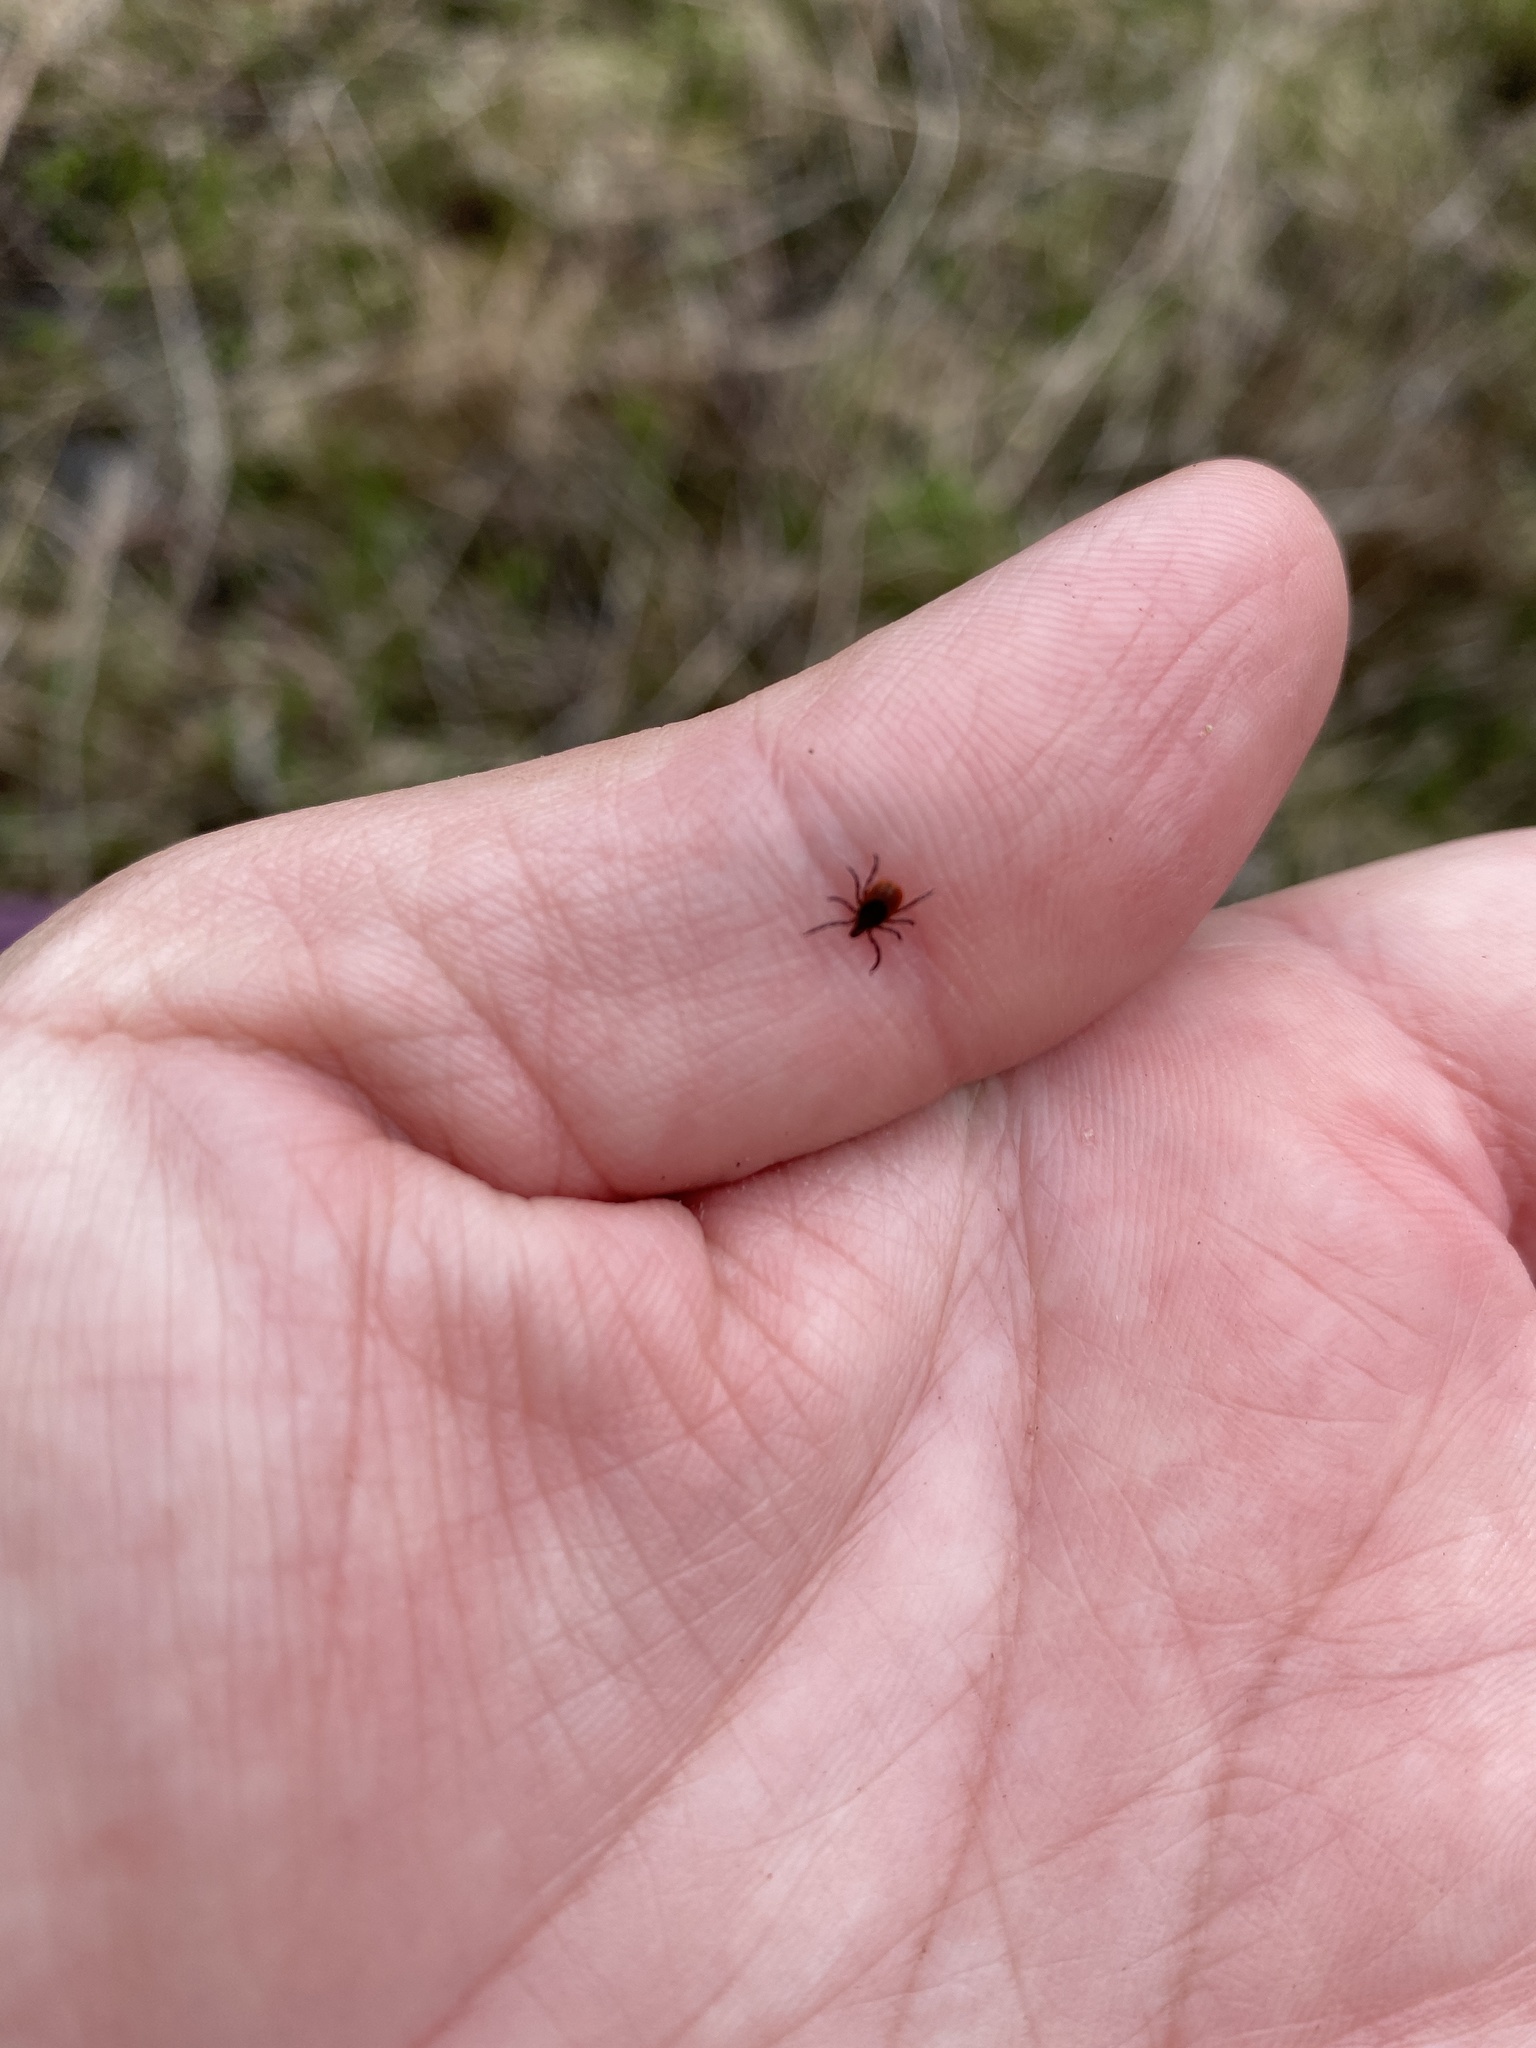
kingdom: Animalia
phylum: Arthropoda
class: Arachnida
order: Ixodida
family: Ixodidae
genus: Ixodes
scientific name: Ixodes scapularis
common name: Black legged tick
